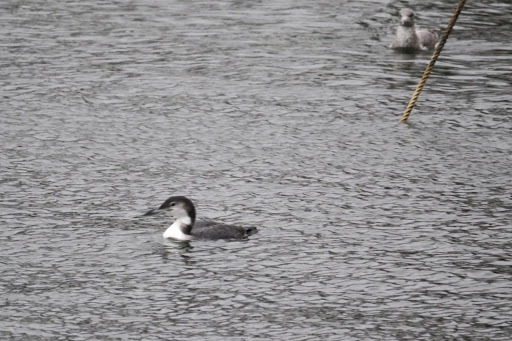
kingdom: Animalia
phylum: Chordata
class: Aves
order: Gaviiformes
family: Gaviidae
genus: Gavia
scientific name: Gavia immer
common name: Common loon
